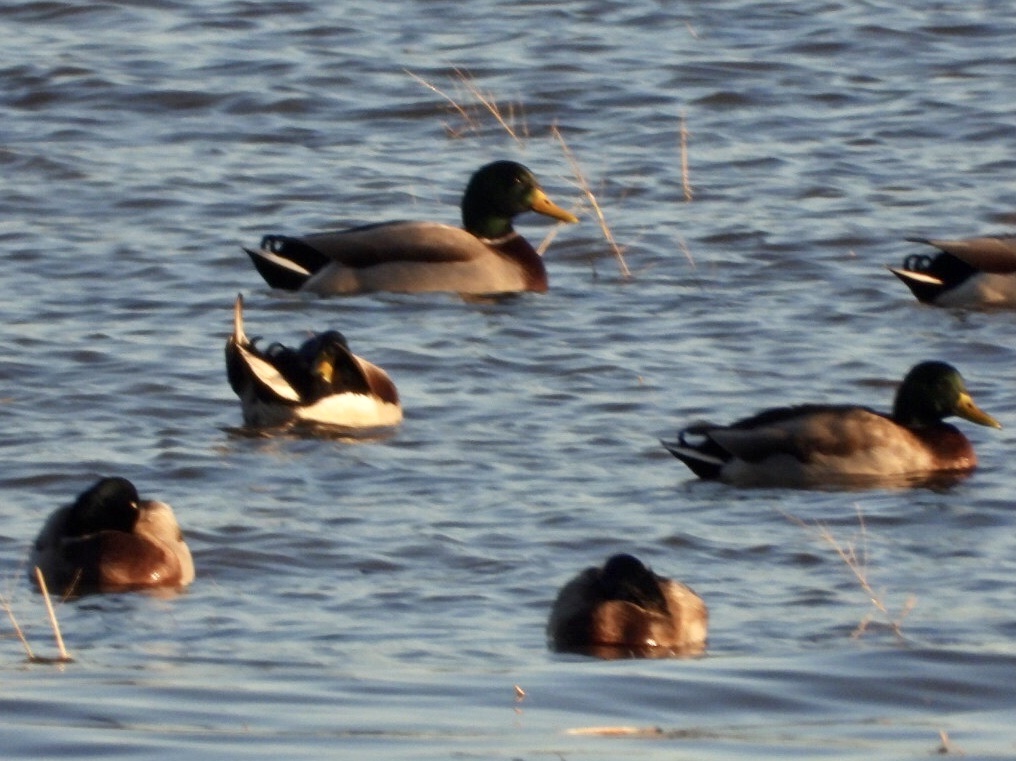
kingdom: Animalia
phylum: Chordata
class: Aves
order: Anseriformes
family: Anatidae
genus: Anas
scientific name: Anas platyrhynchos
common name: Mallard
